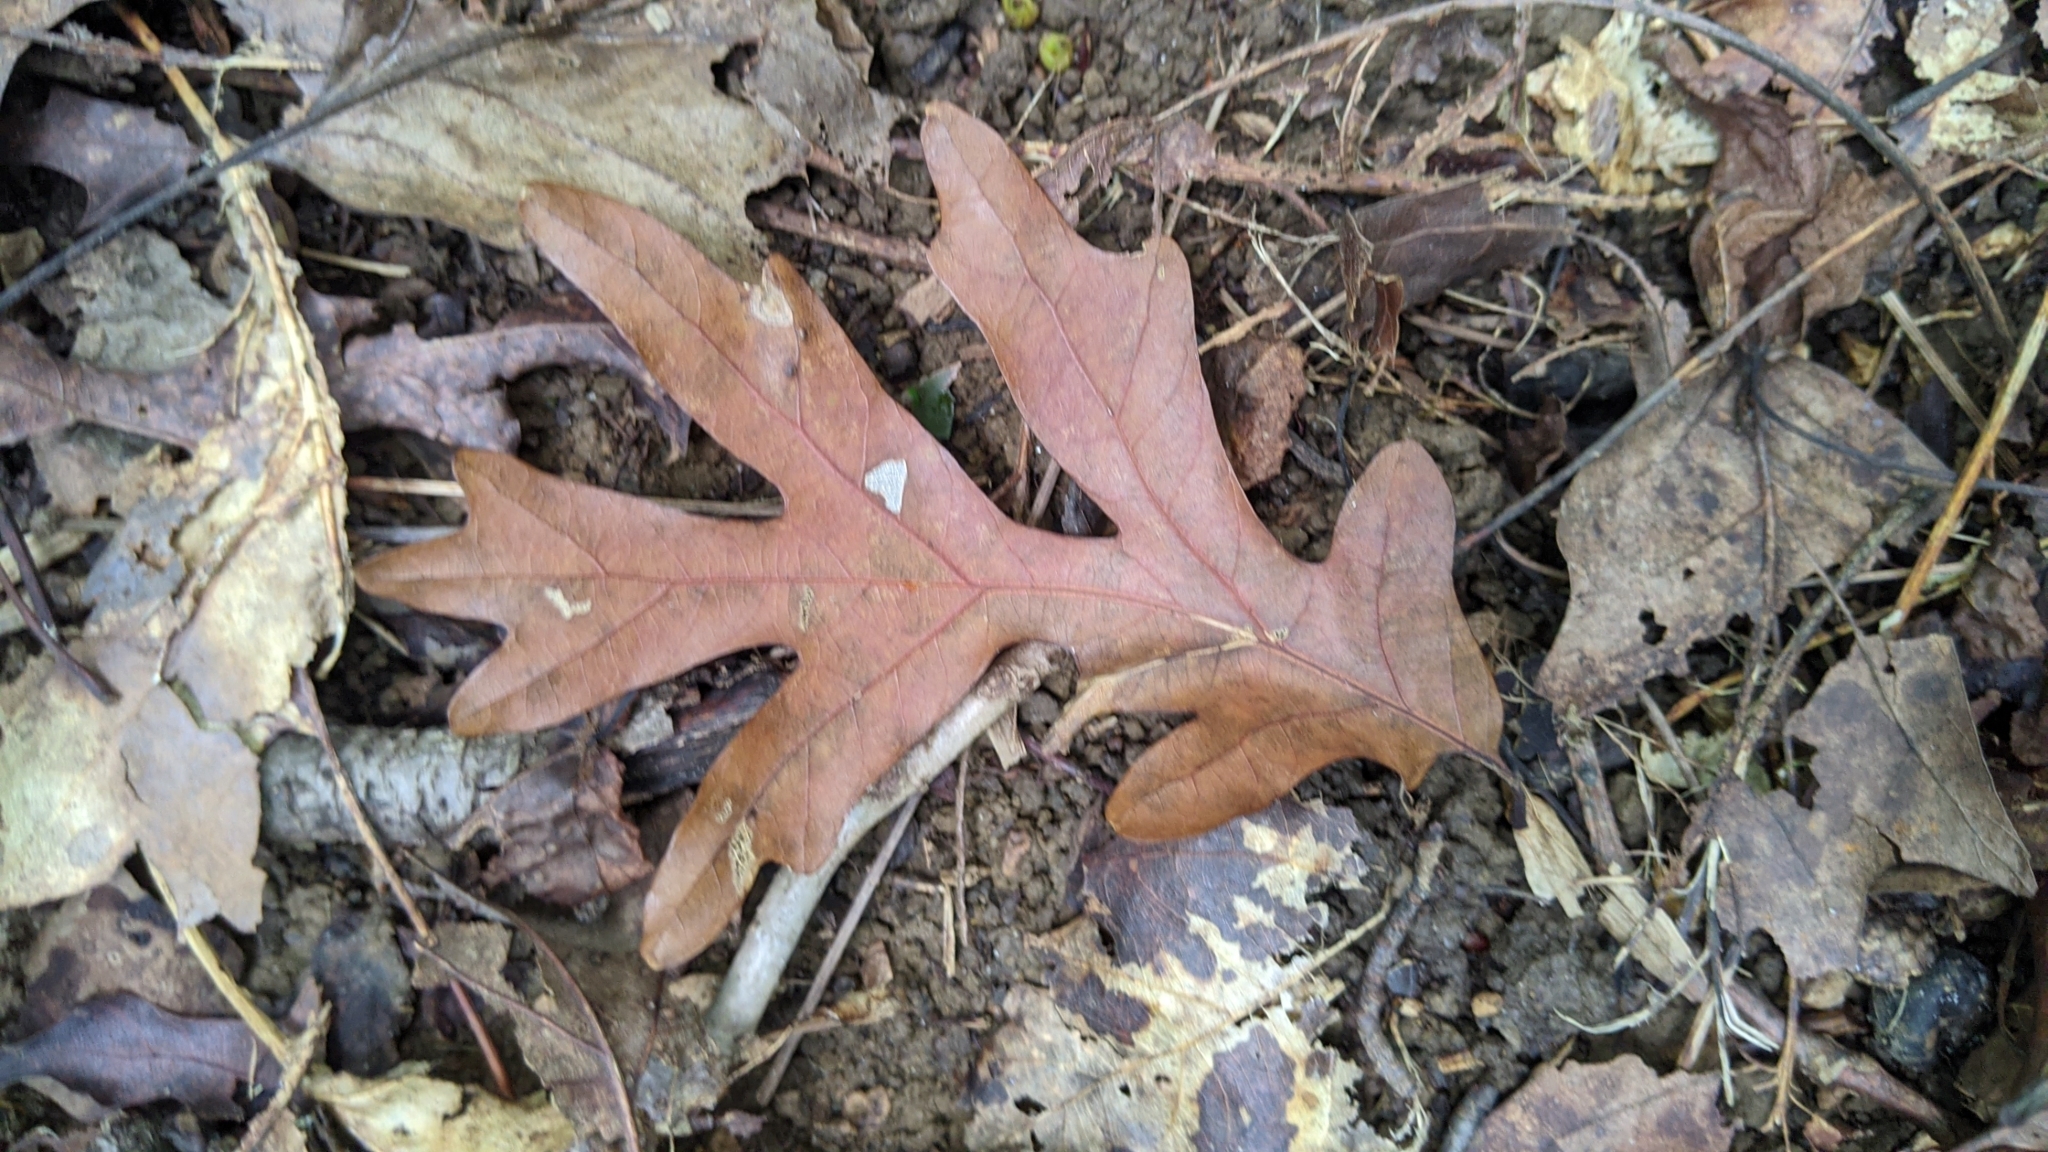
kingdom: Plantae
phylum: Tracheophyta
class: Magnoliopsida
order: Fagales
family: Fagaceae
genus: Quercus
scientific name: Quercus alba
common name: White oak
